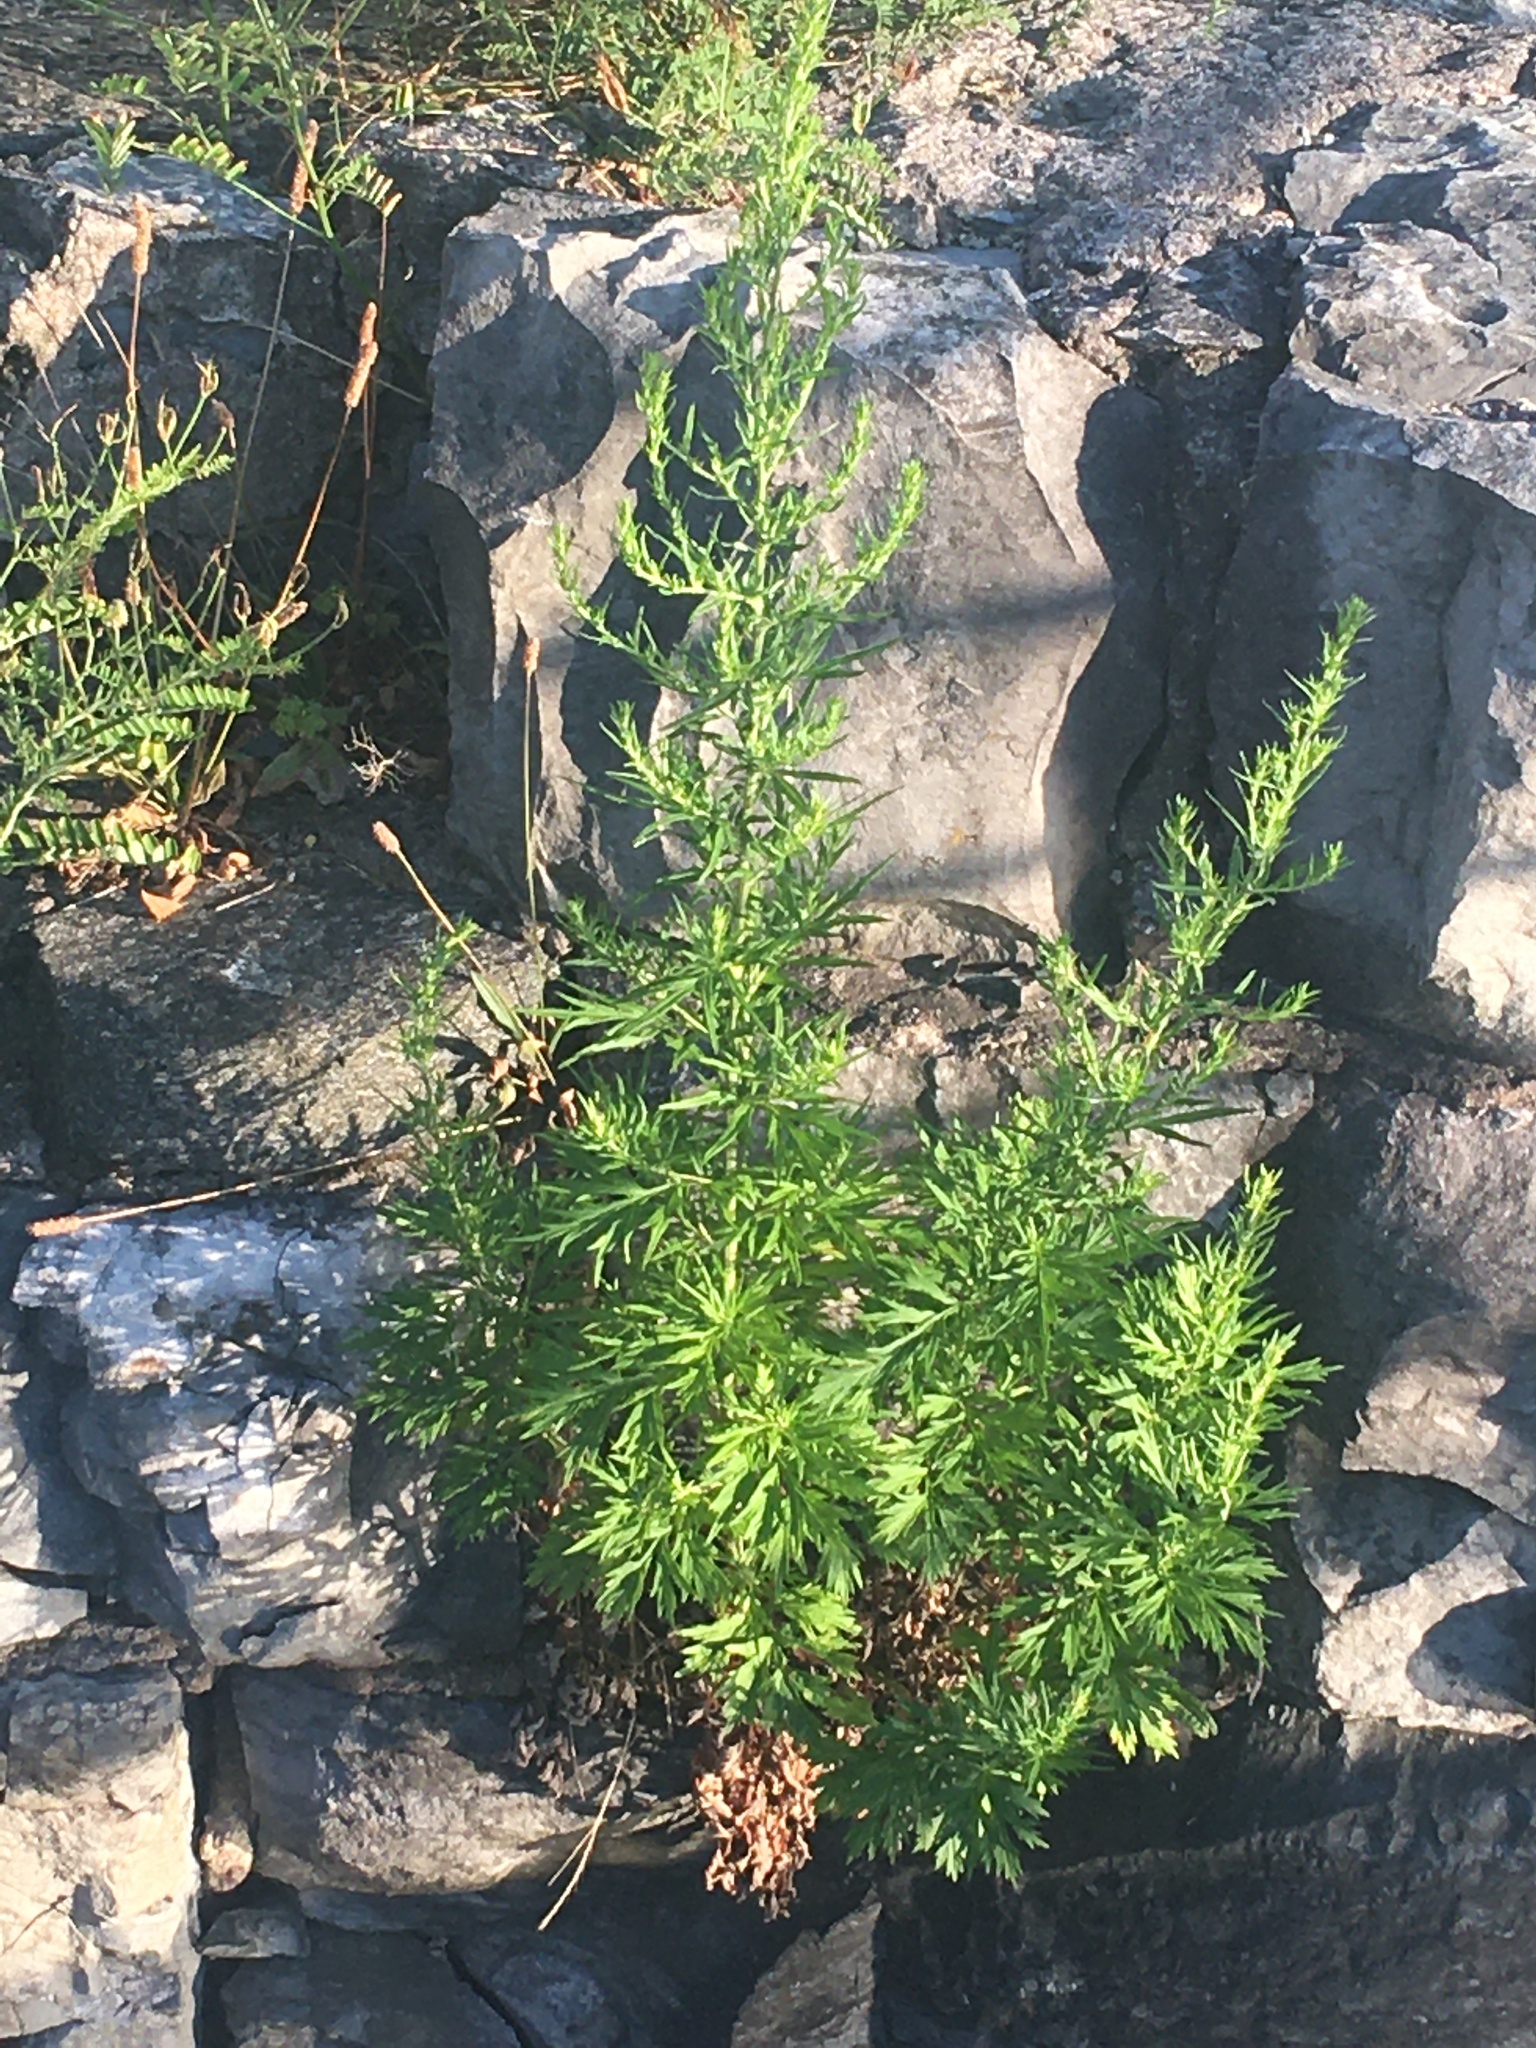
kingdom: Plantae
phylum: Tracheophyta
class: Magnoliopsida
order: Asterales
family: Asteraceae
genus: Artemisia
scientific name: Artemisia vulgaris
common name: Mugwort
